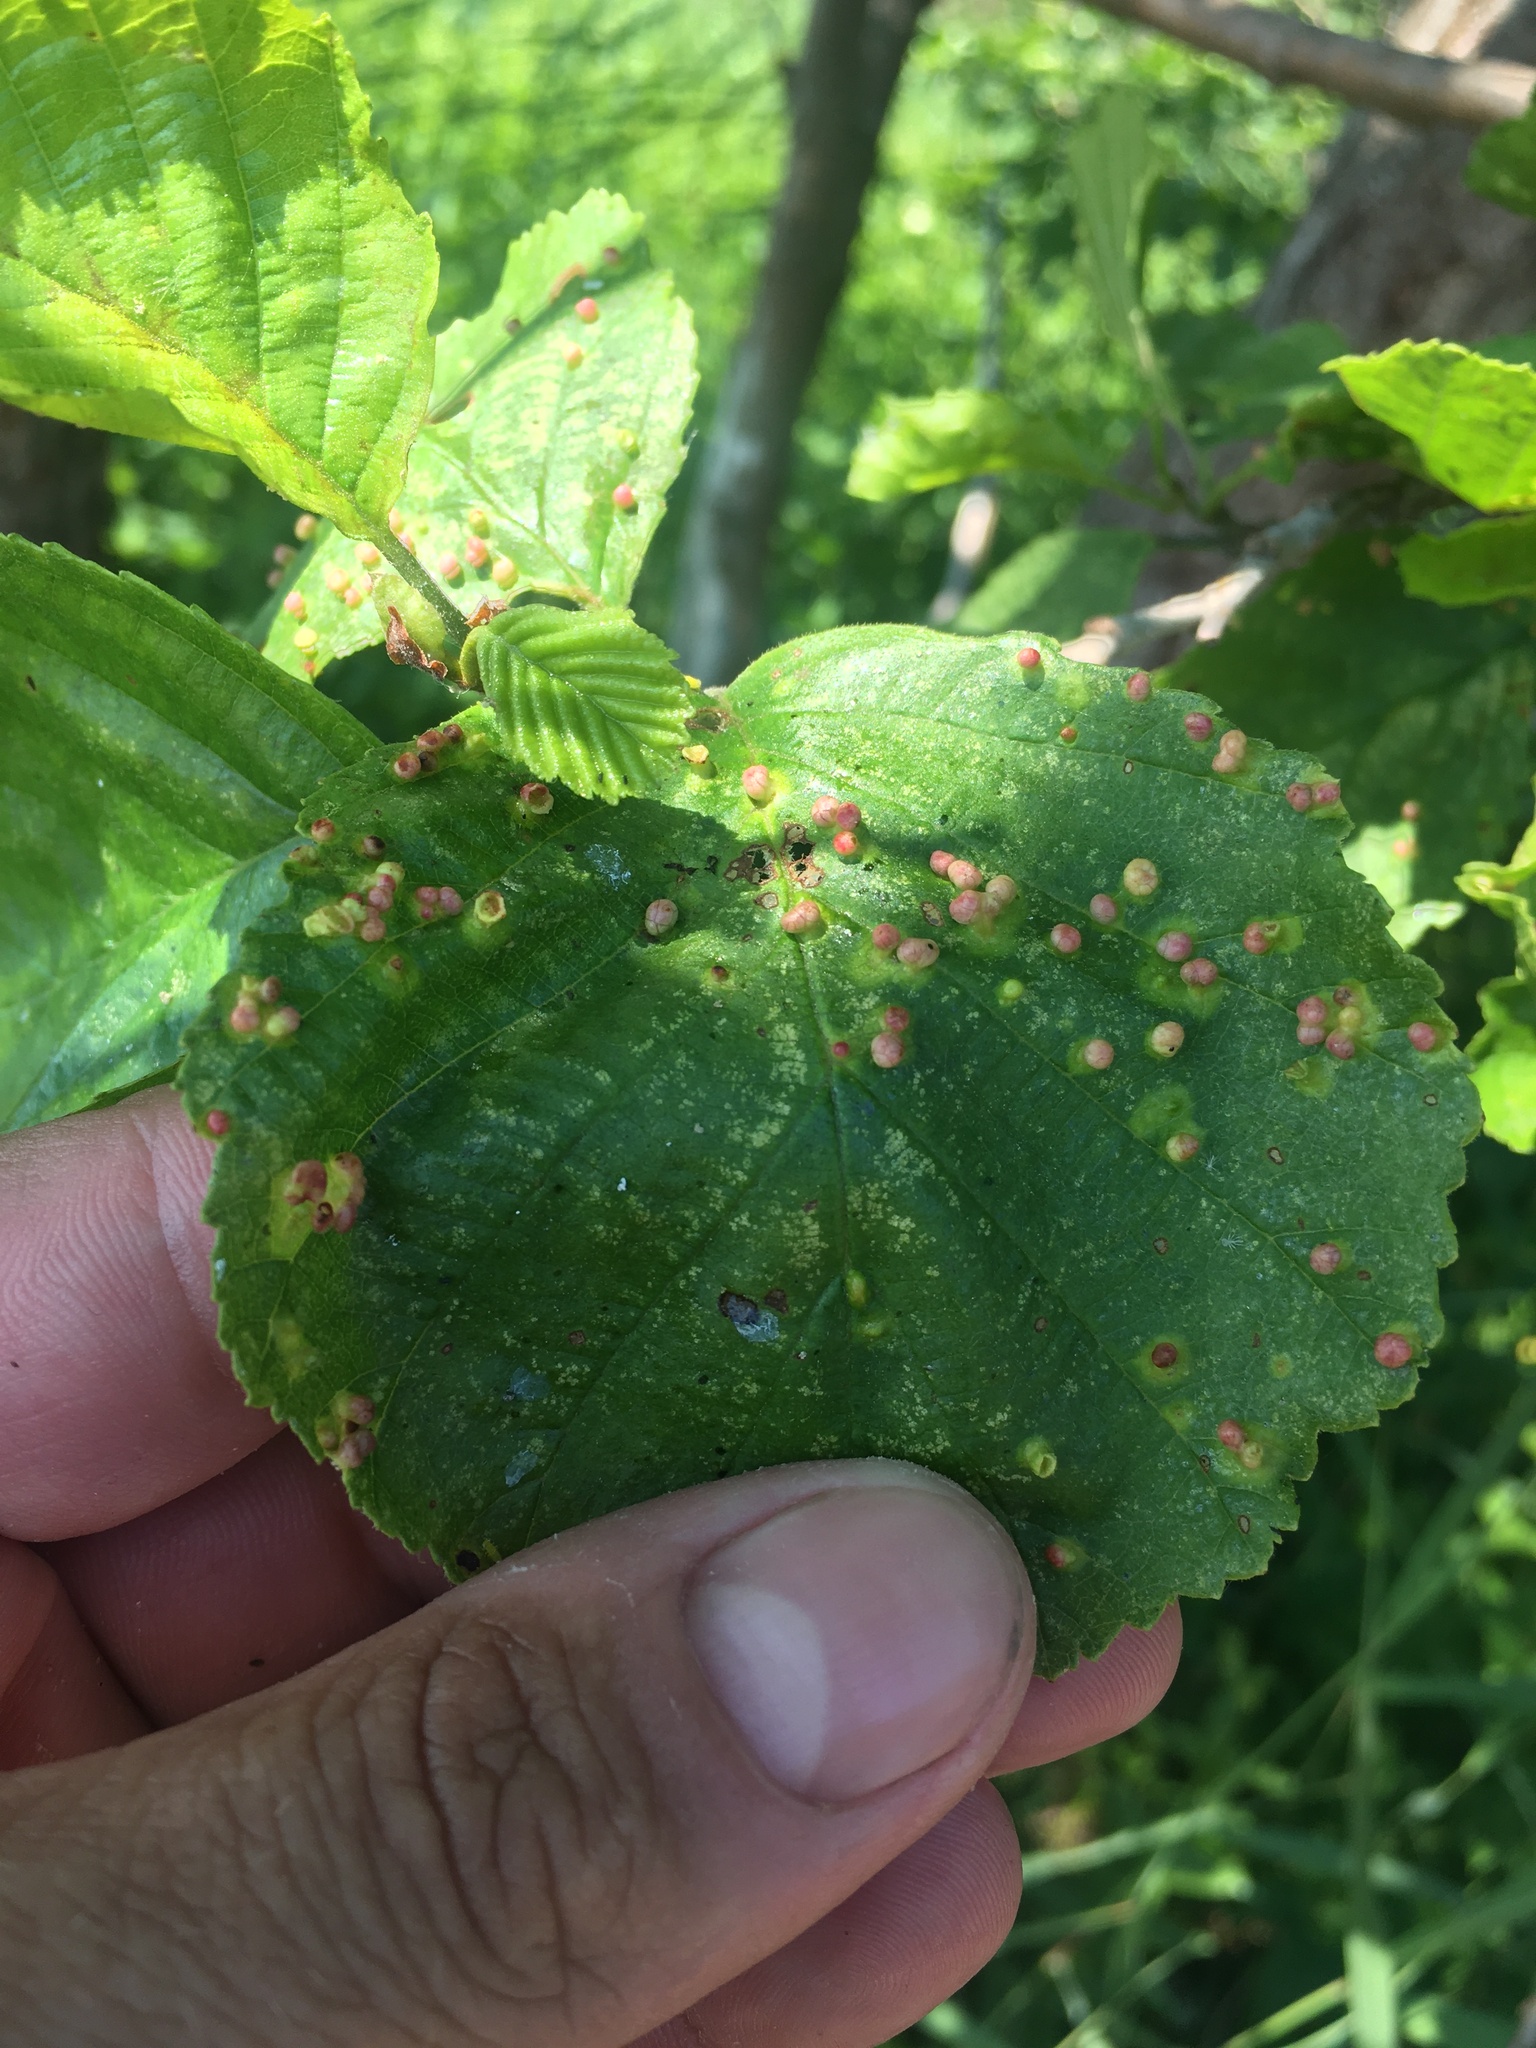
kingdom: Plantae
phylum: Tracheophyta
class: Magnoliopsida
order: Fagales
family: Betulaceae
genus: Alnus
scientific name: Alnus glutinosa
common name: Black alder
